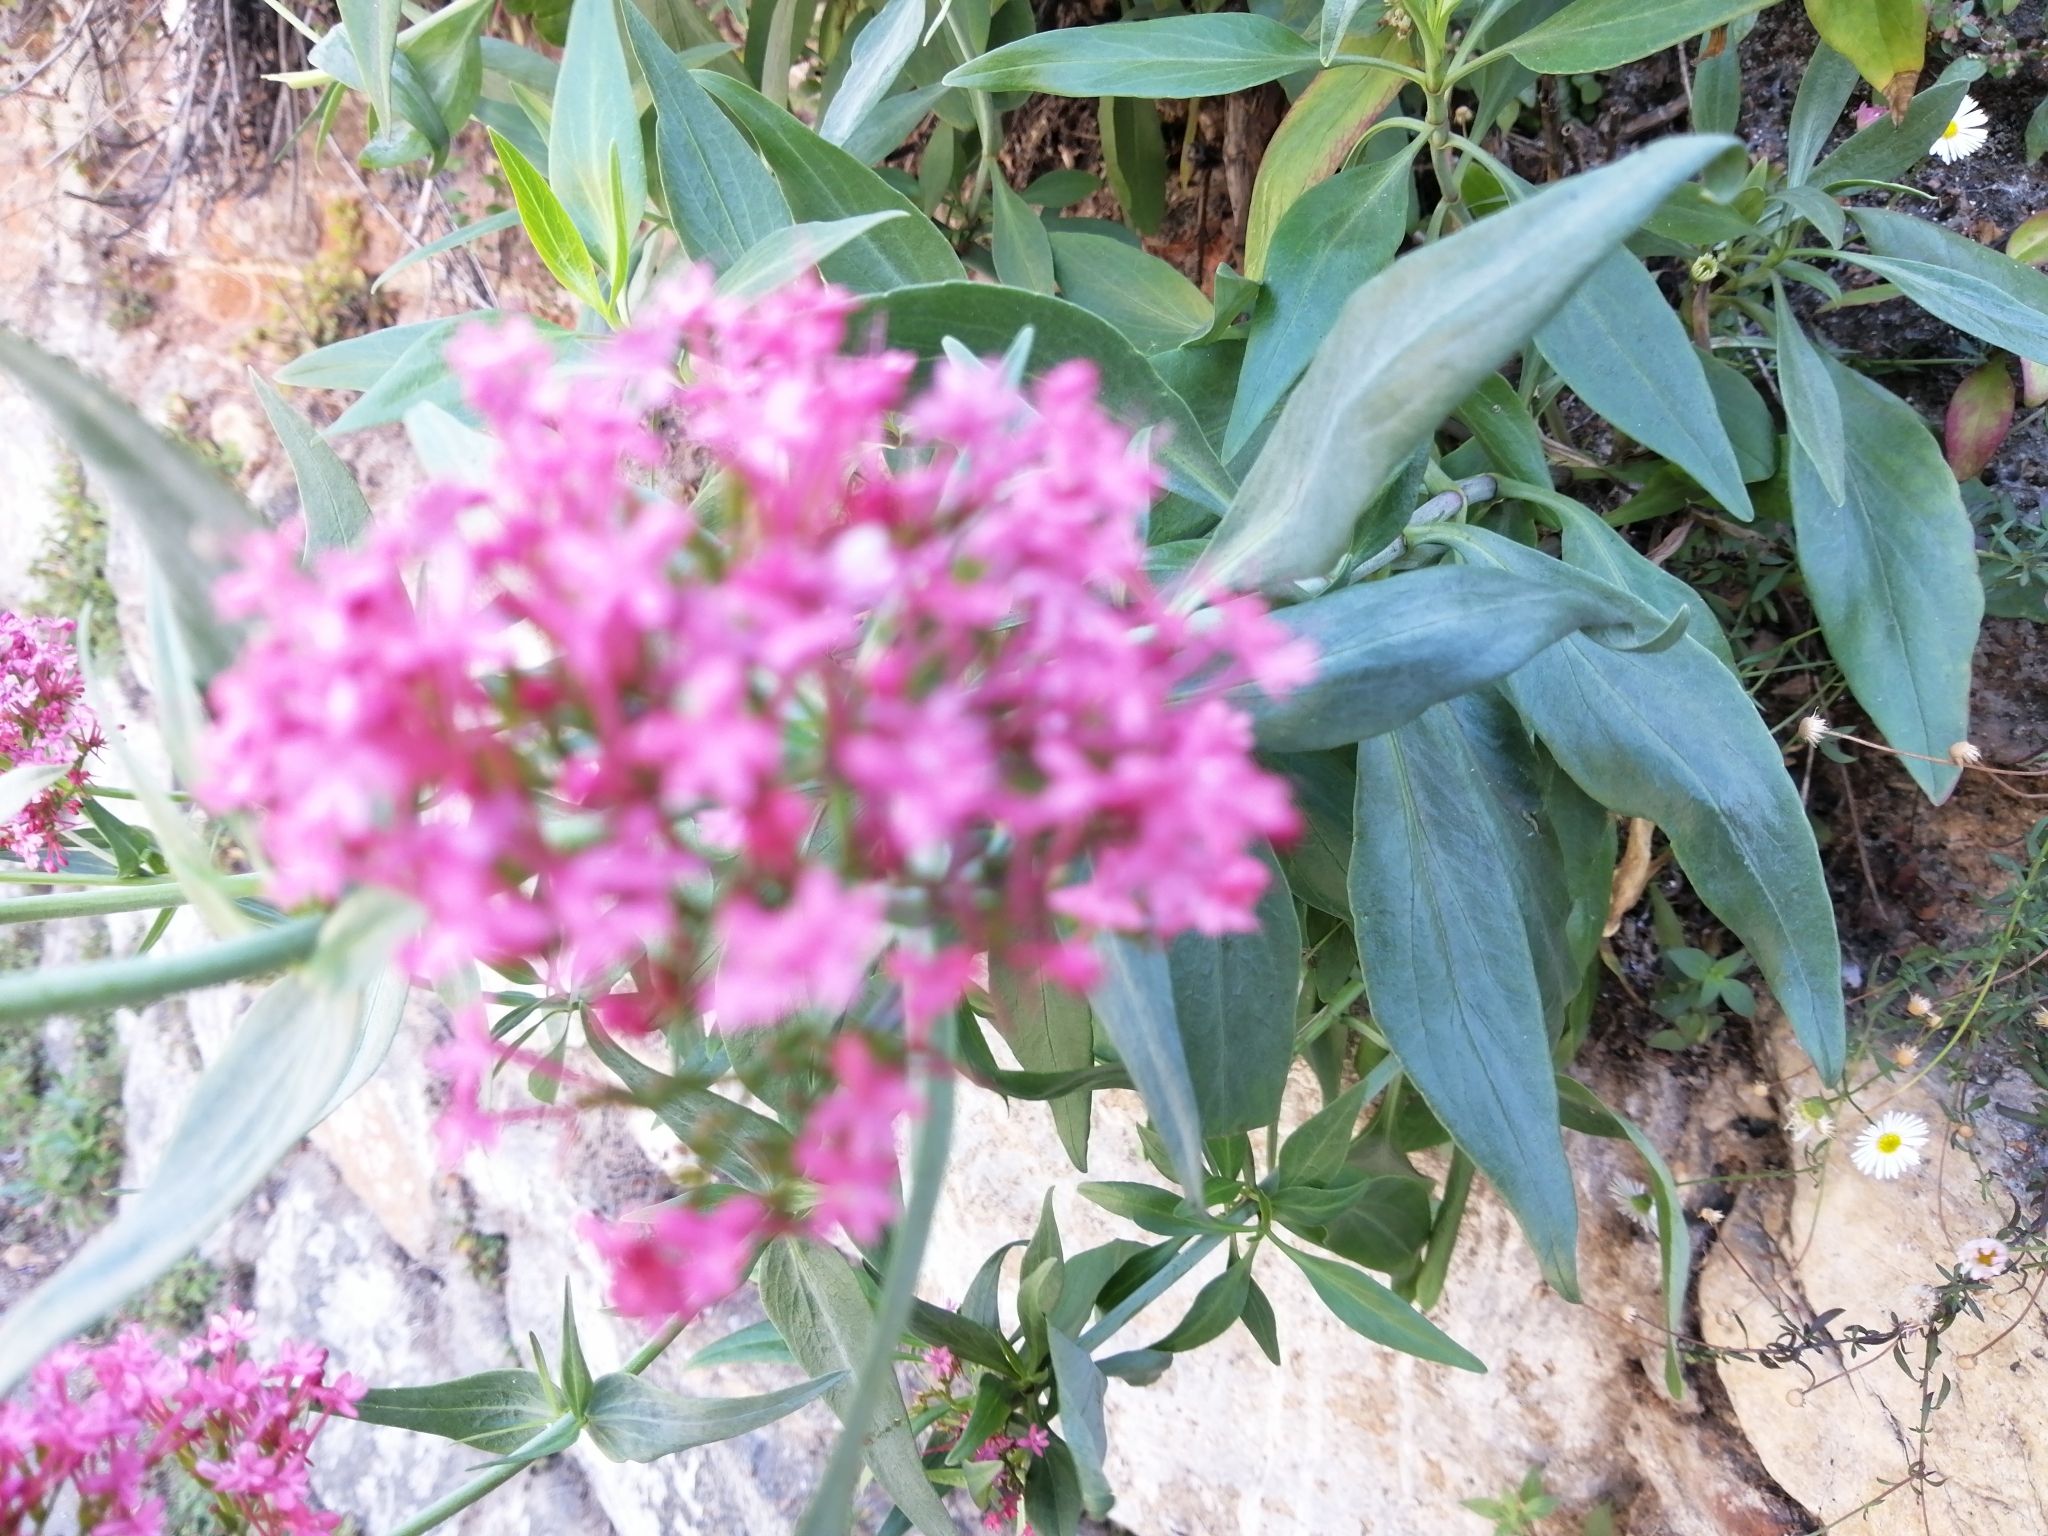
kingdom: Plantae
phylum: Tracheophyta
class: Magnoliopsida
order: Dipsacales
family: Caprifoliaceae
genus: Centranthus
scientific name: Centranthus ruber
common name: Red valerian
